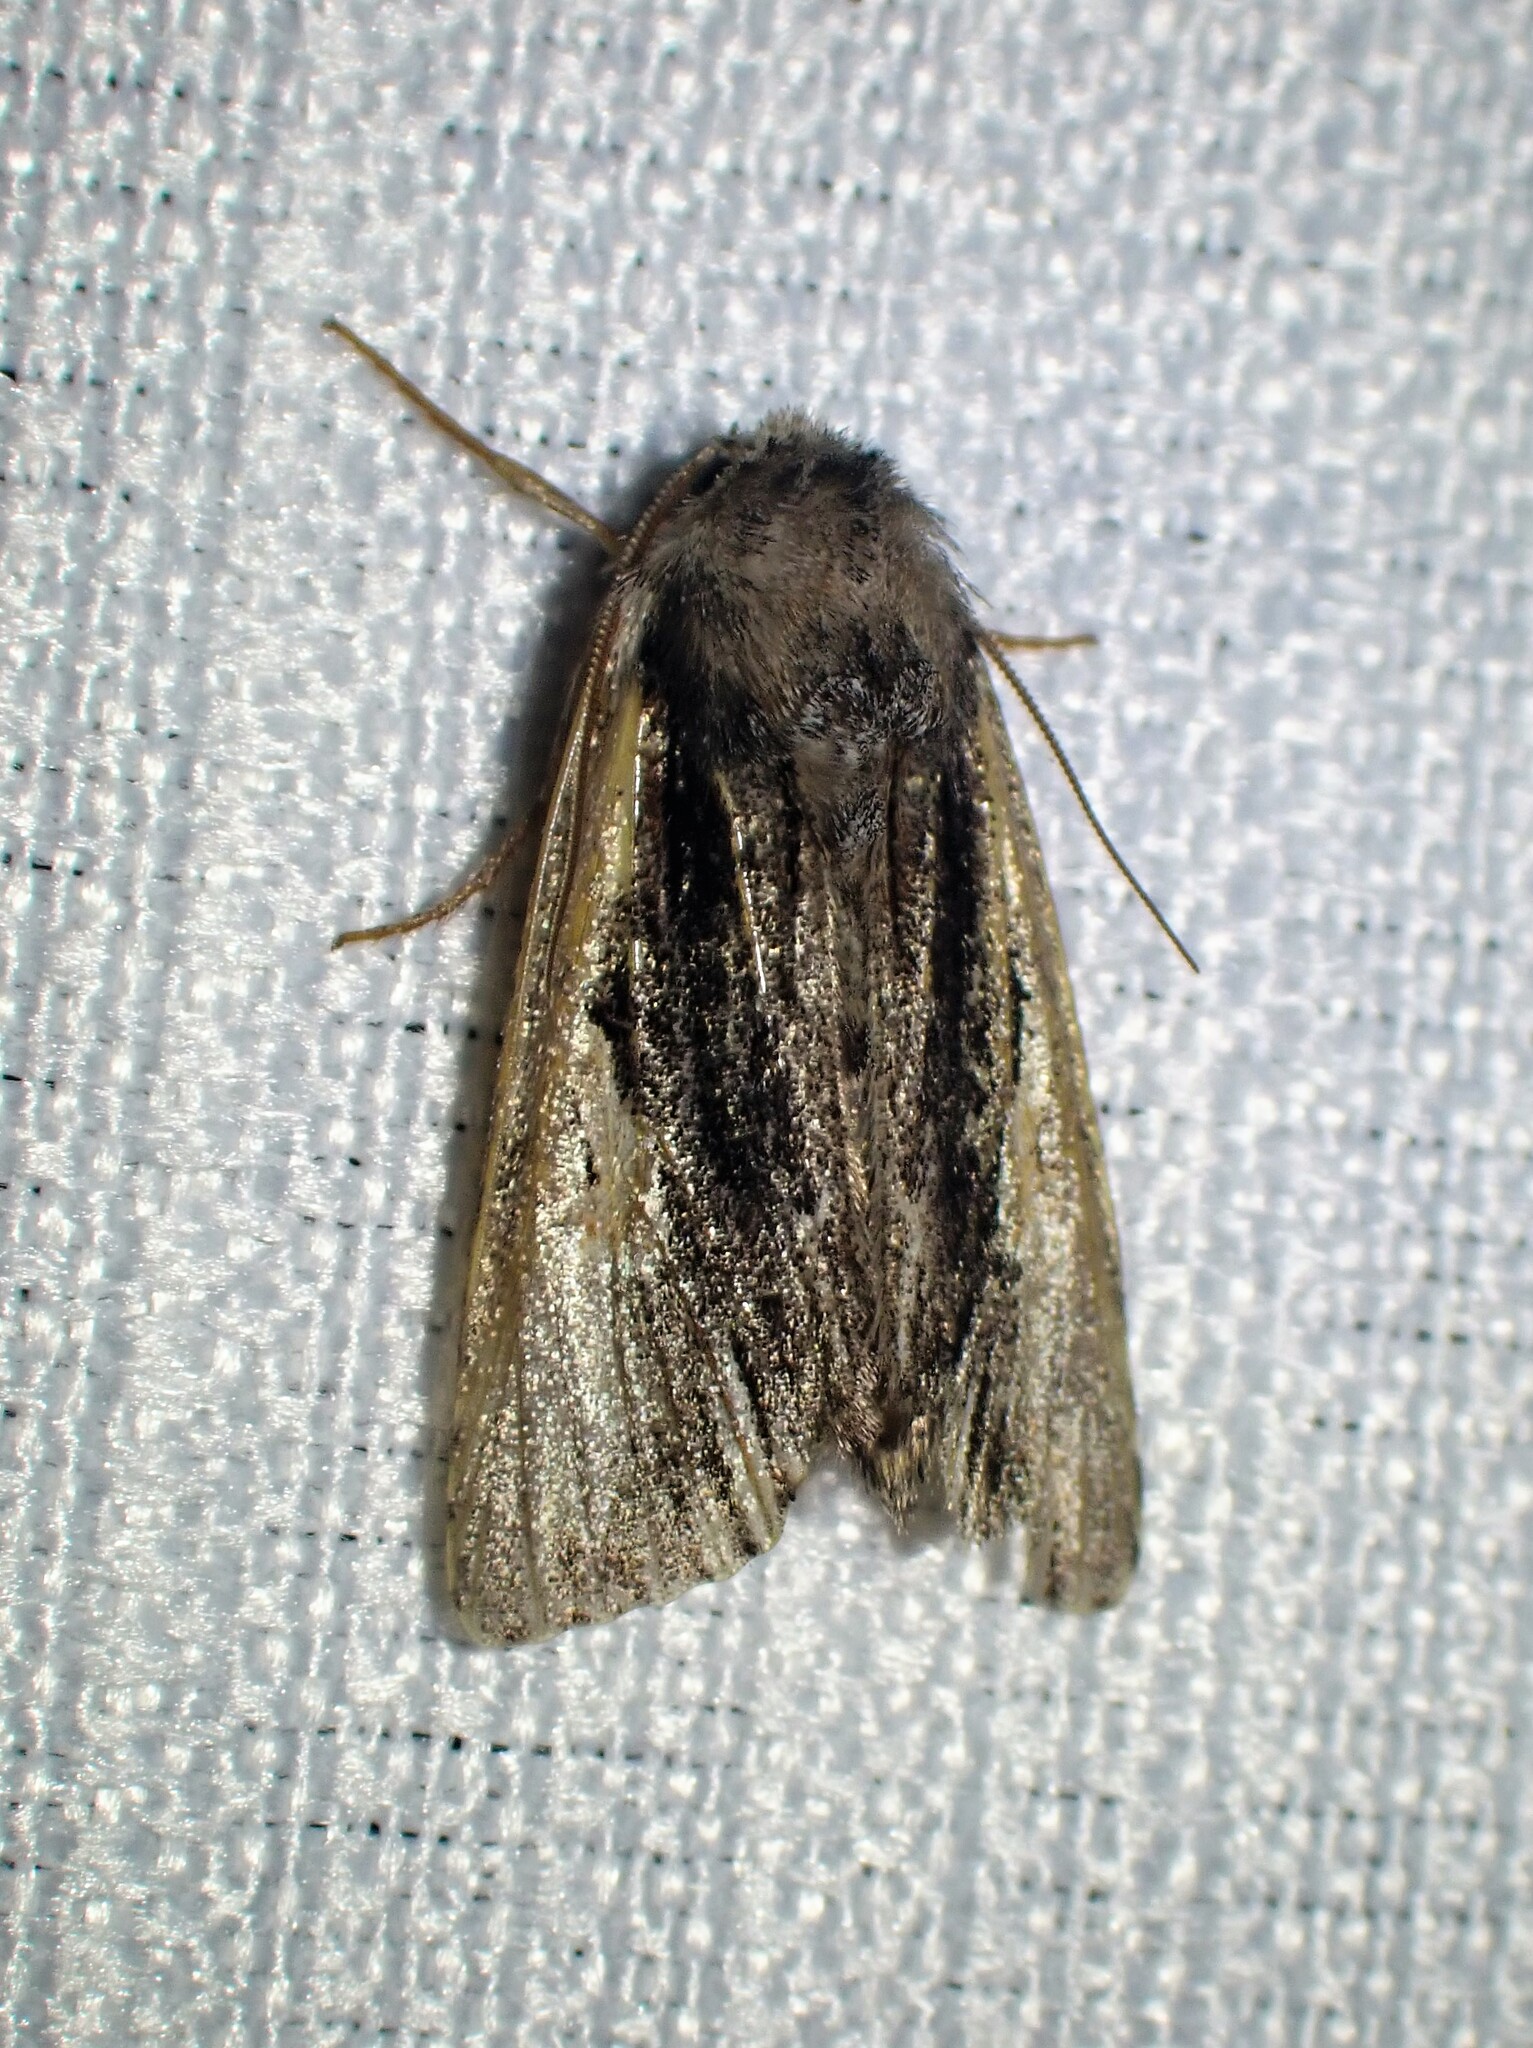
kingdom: Animalia
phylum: Arthropoda
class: Insecta
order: Lepidoptera
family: Noctuidae
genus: Achatia
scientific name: Achatia evicta
